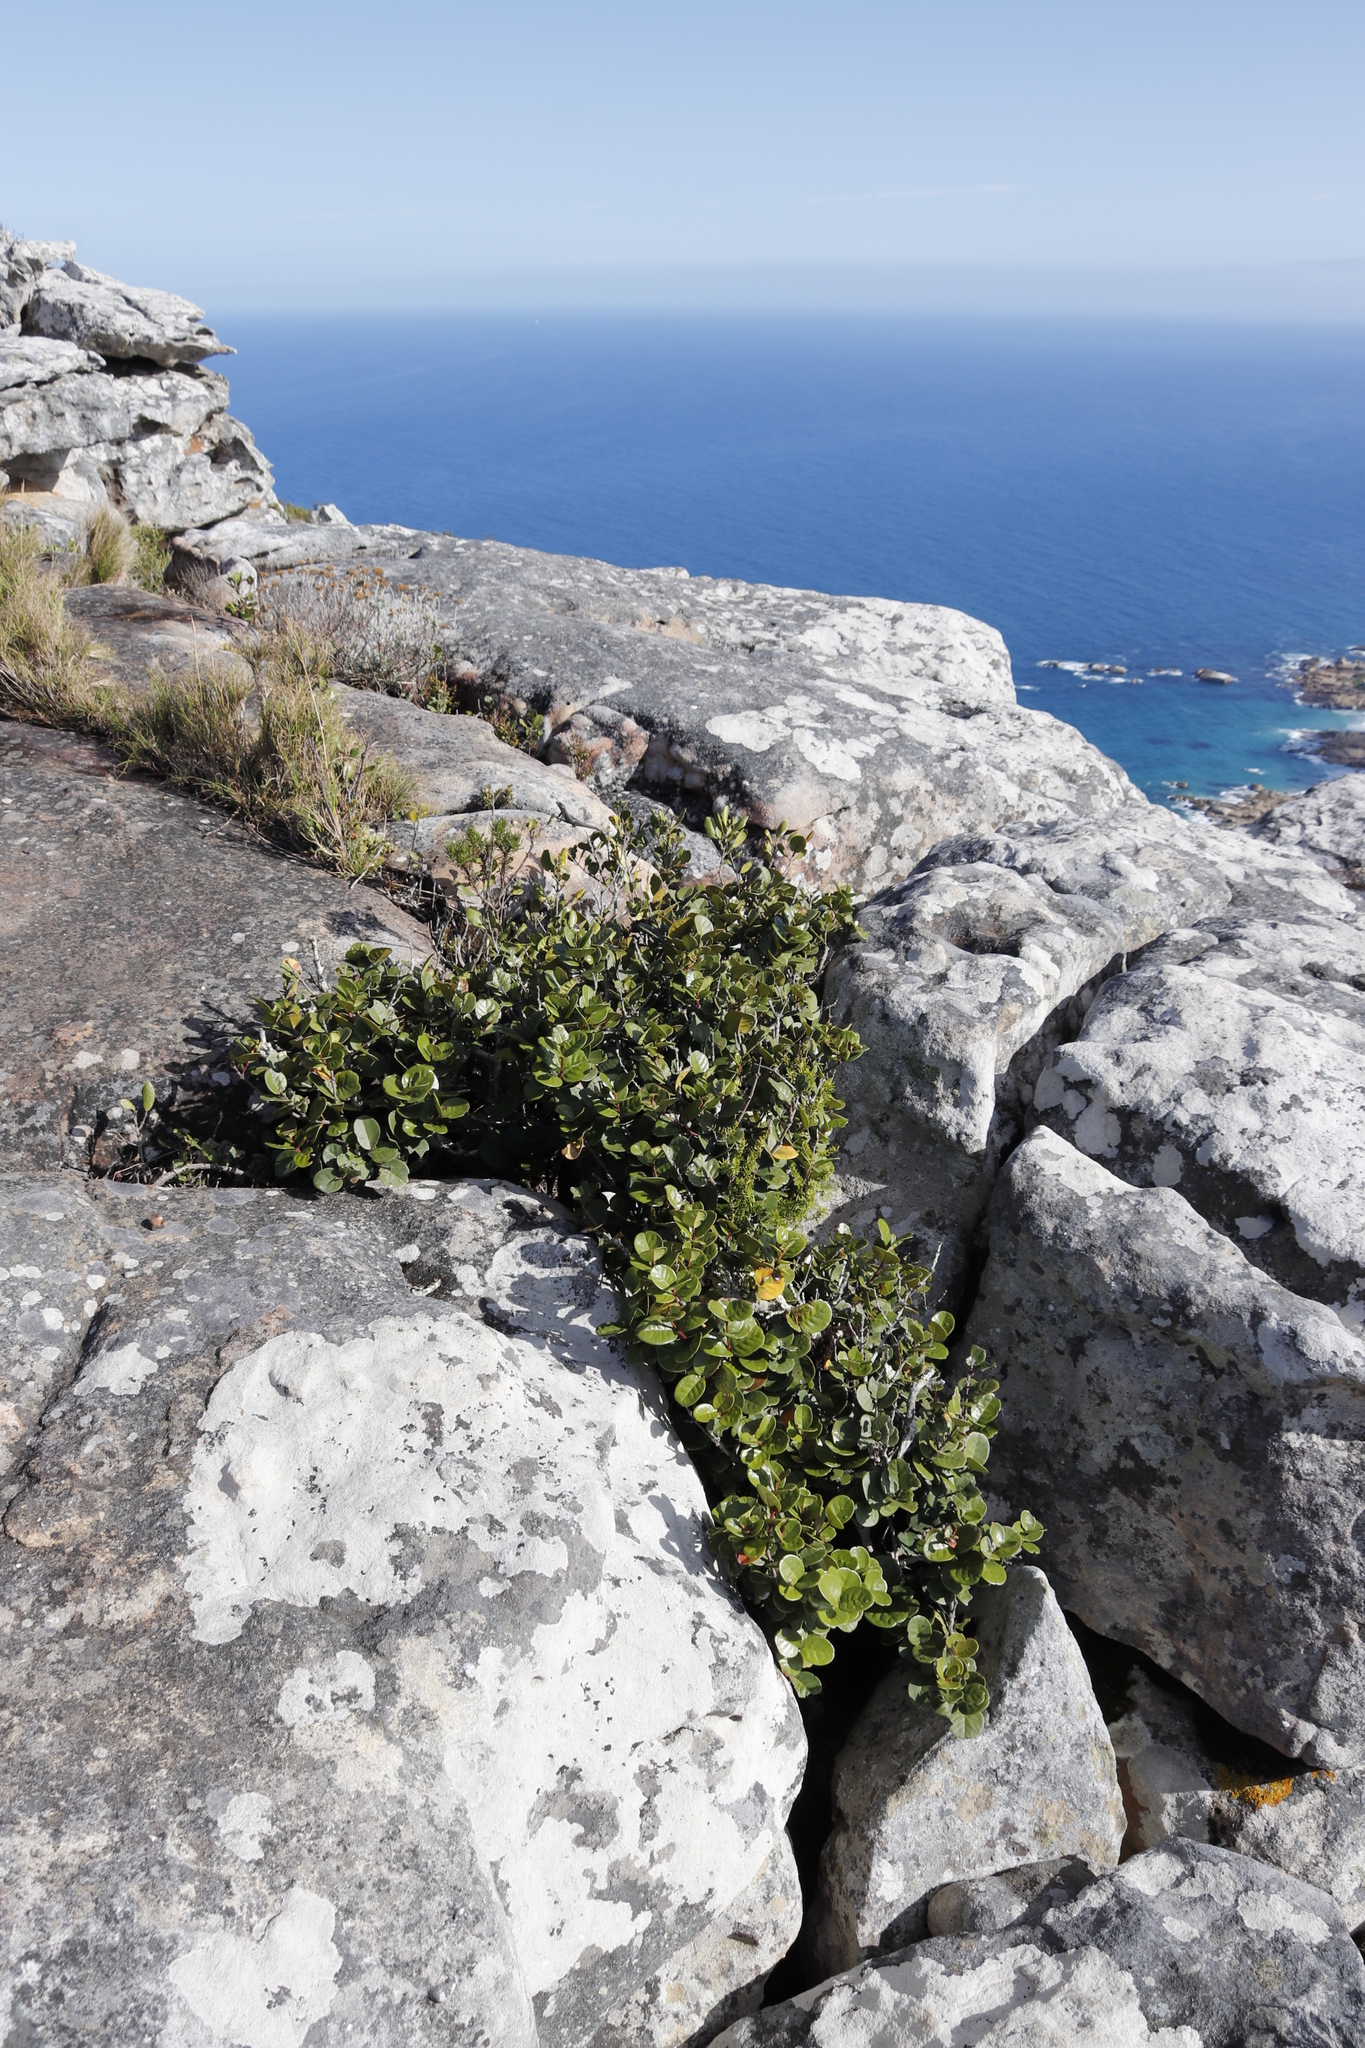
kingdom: Plantae
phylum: Tracheophyta
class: Magnoliopsida
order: Celastrales
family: Celastraceae
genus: Maurocenia
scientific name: Maurocenia frangula
